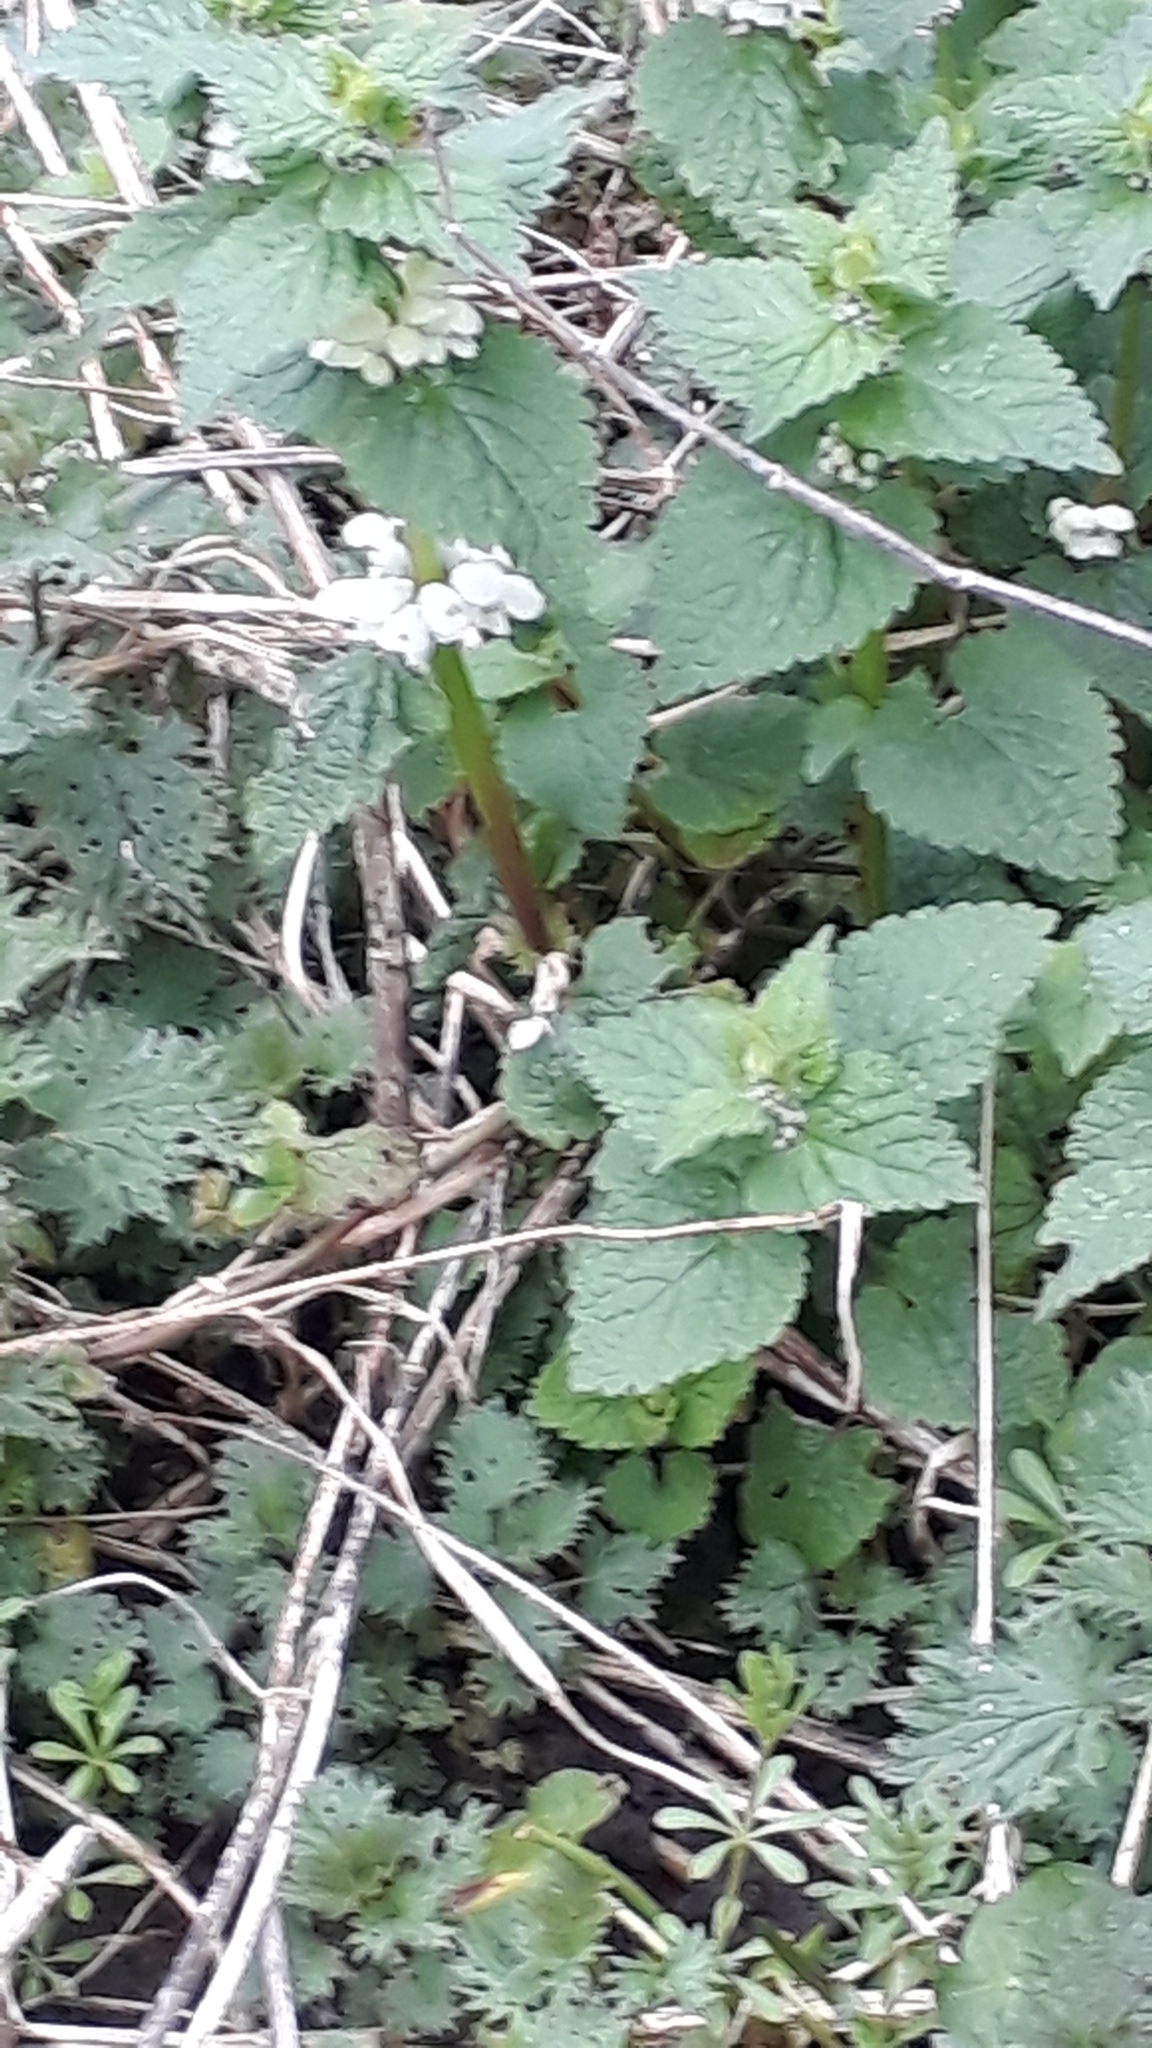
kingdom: Plantae
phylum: Tracheophyta
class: Magnoliopsida
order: Lamiales
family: Lamiaceae
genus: Lamium
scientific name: Lamium album
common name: White dead-nettle
